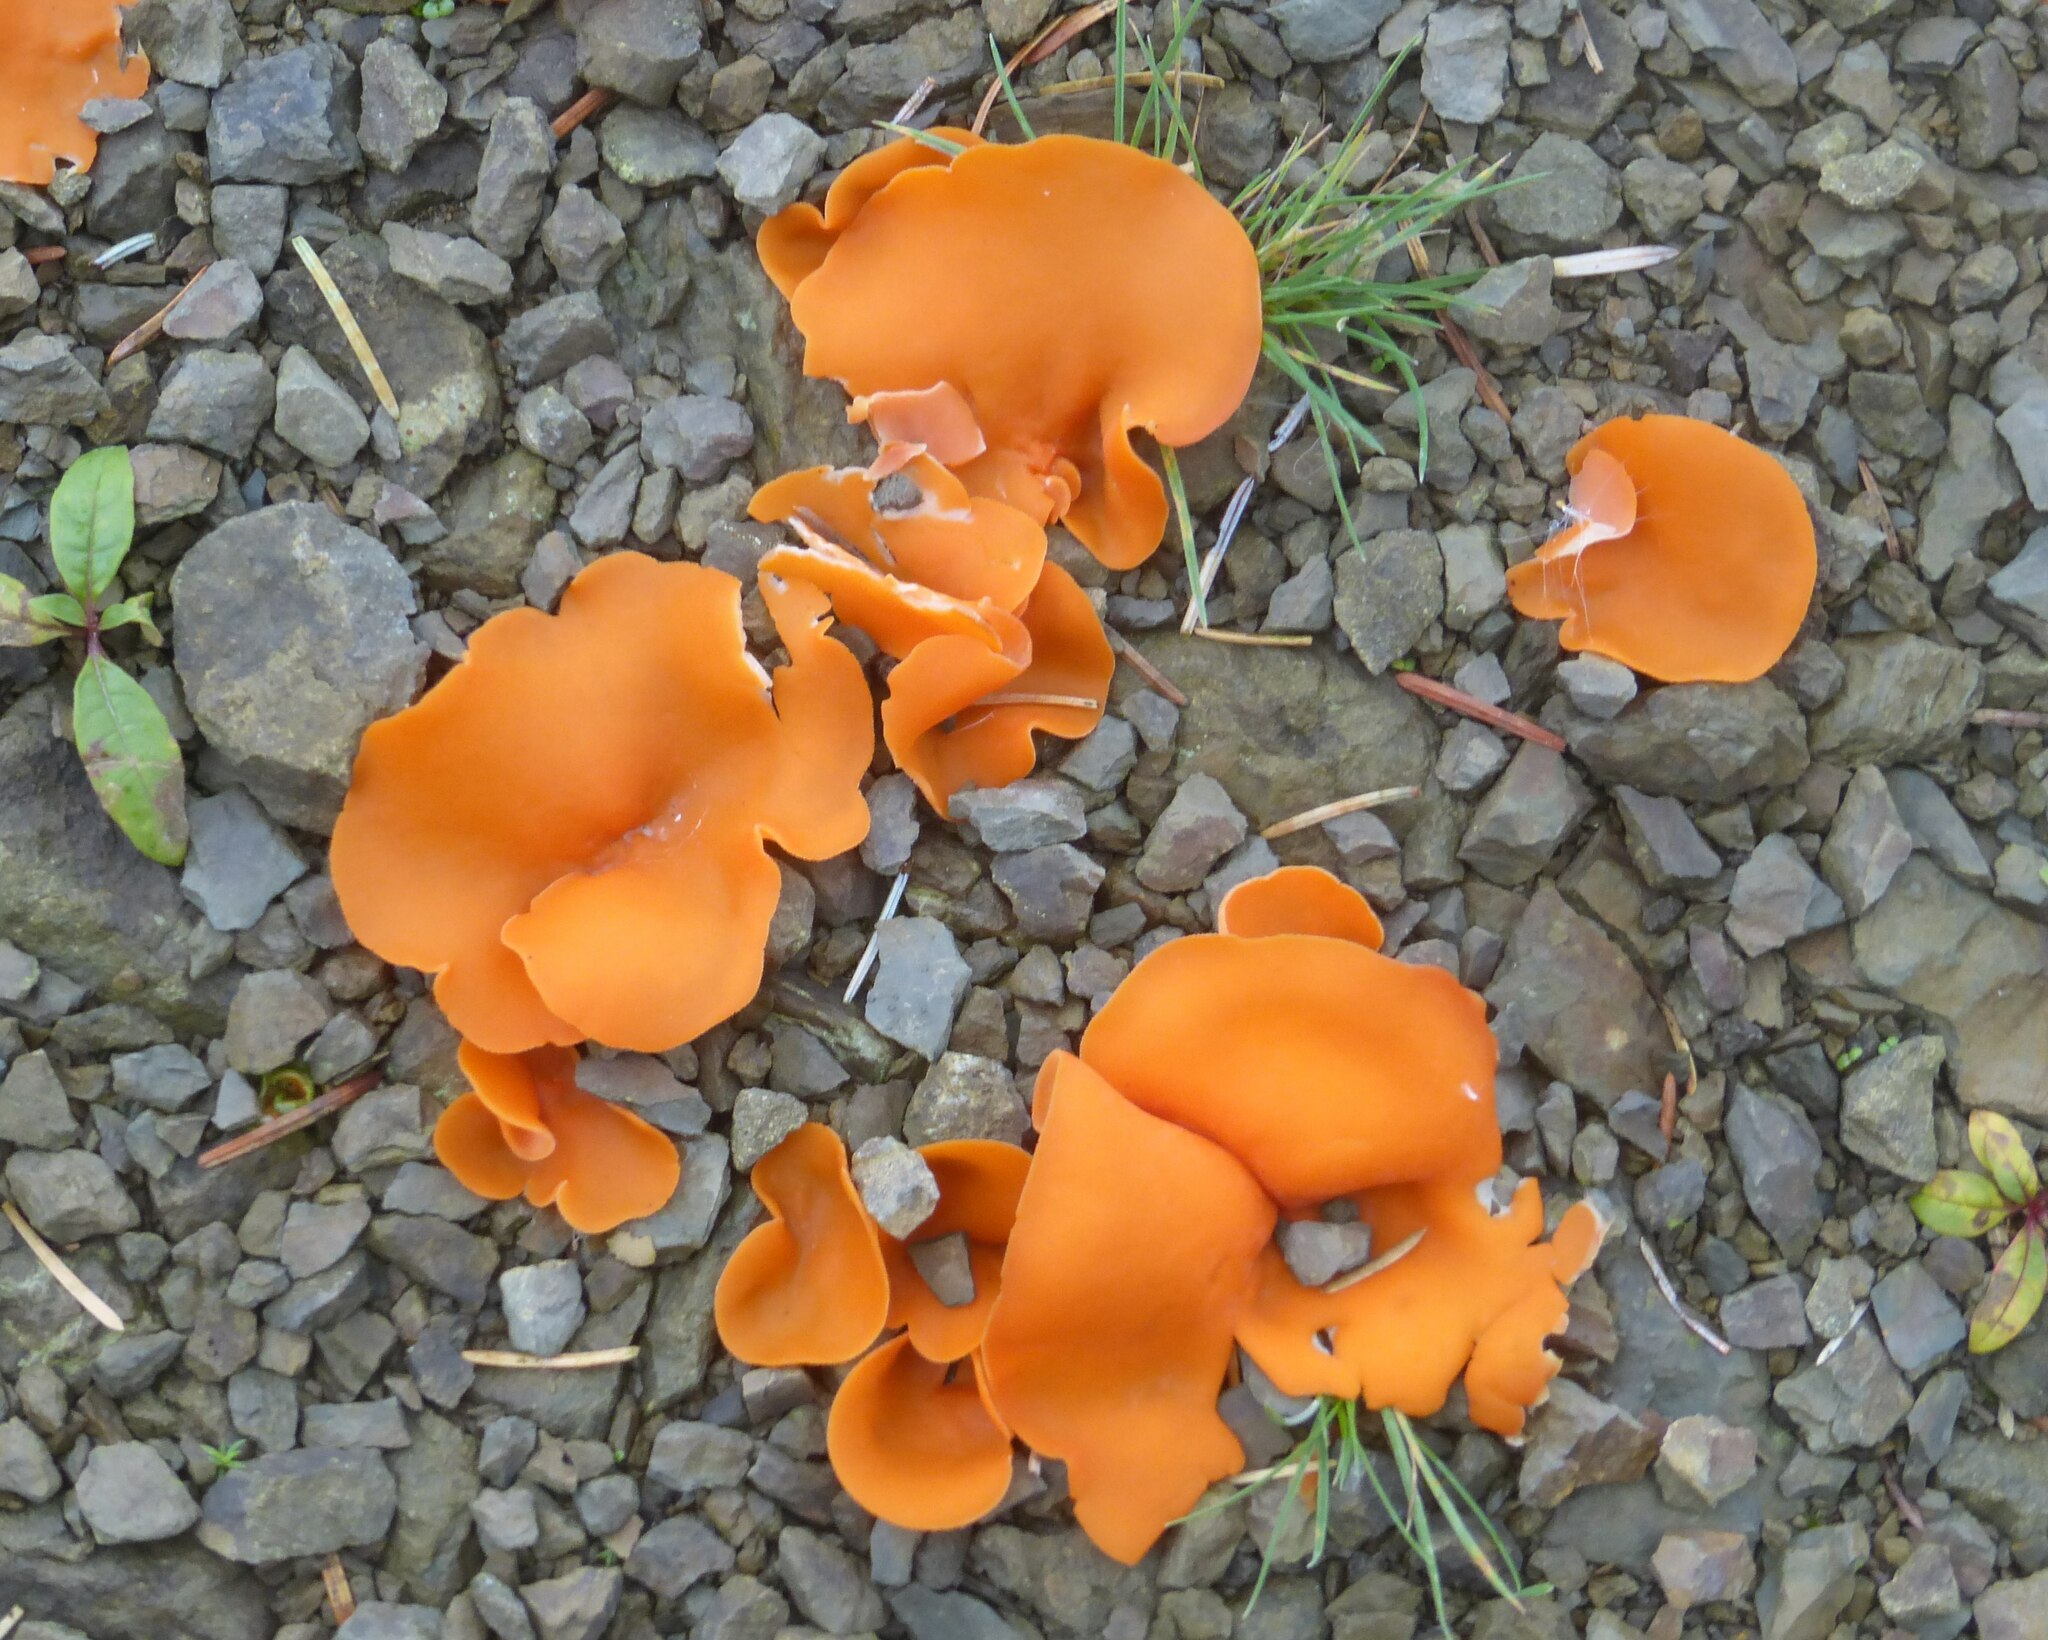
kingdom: Fungi
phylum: Ascomycota
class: Pezizomycetes
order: Pezizales
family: Pyronemataceae
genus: Aleuria
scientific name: Aleuria aurantia
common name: Orange peel fungus
